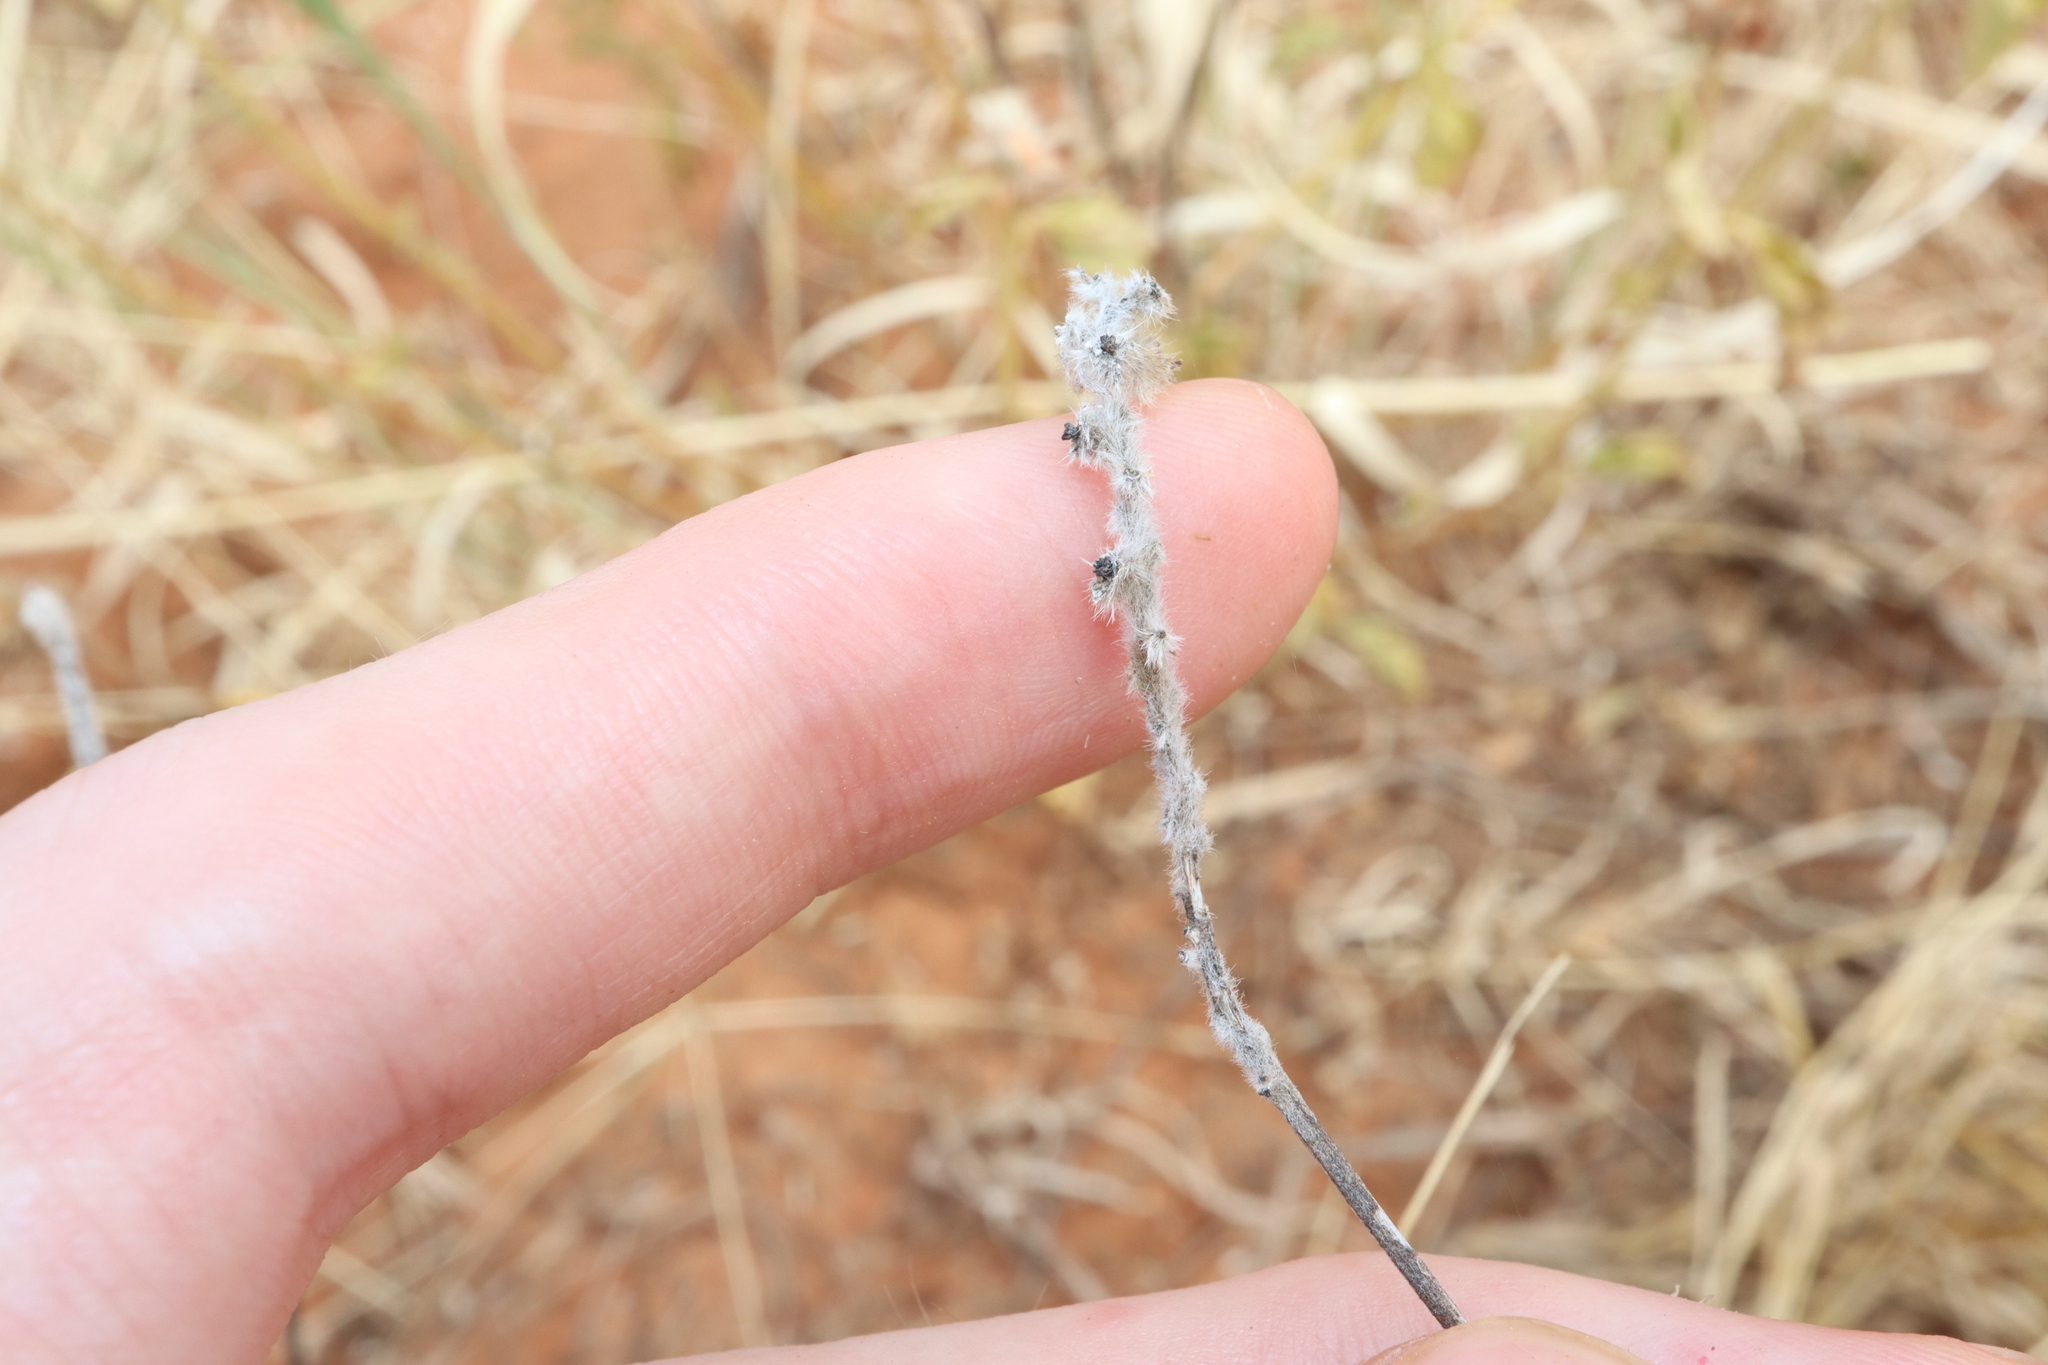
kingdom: Plantae
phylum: Tracheophyta
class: Magnoliopsida
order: Malvales
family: Thymelaeaceae
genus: Pimelea
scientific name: Pimelea simplex
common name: Desert riceflower
